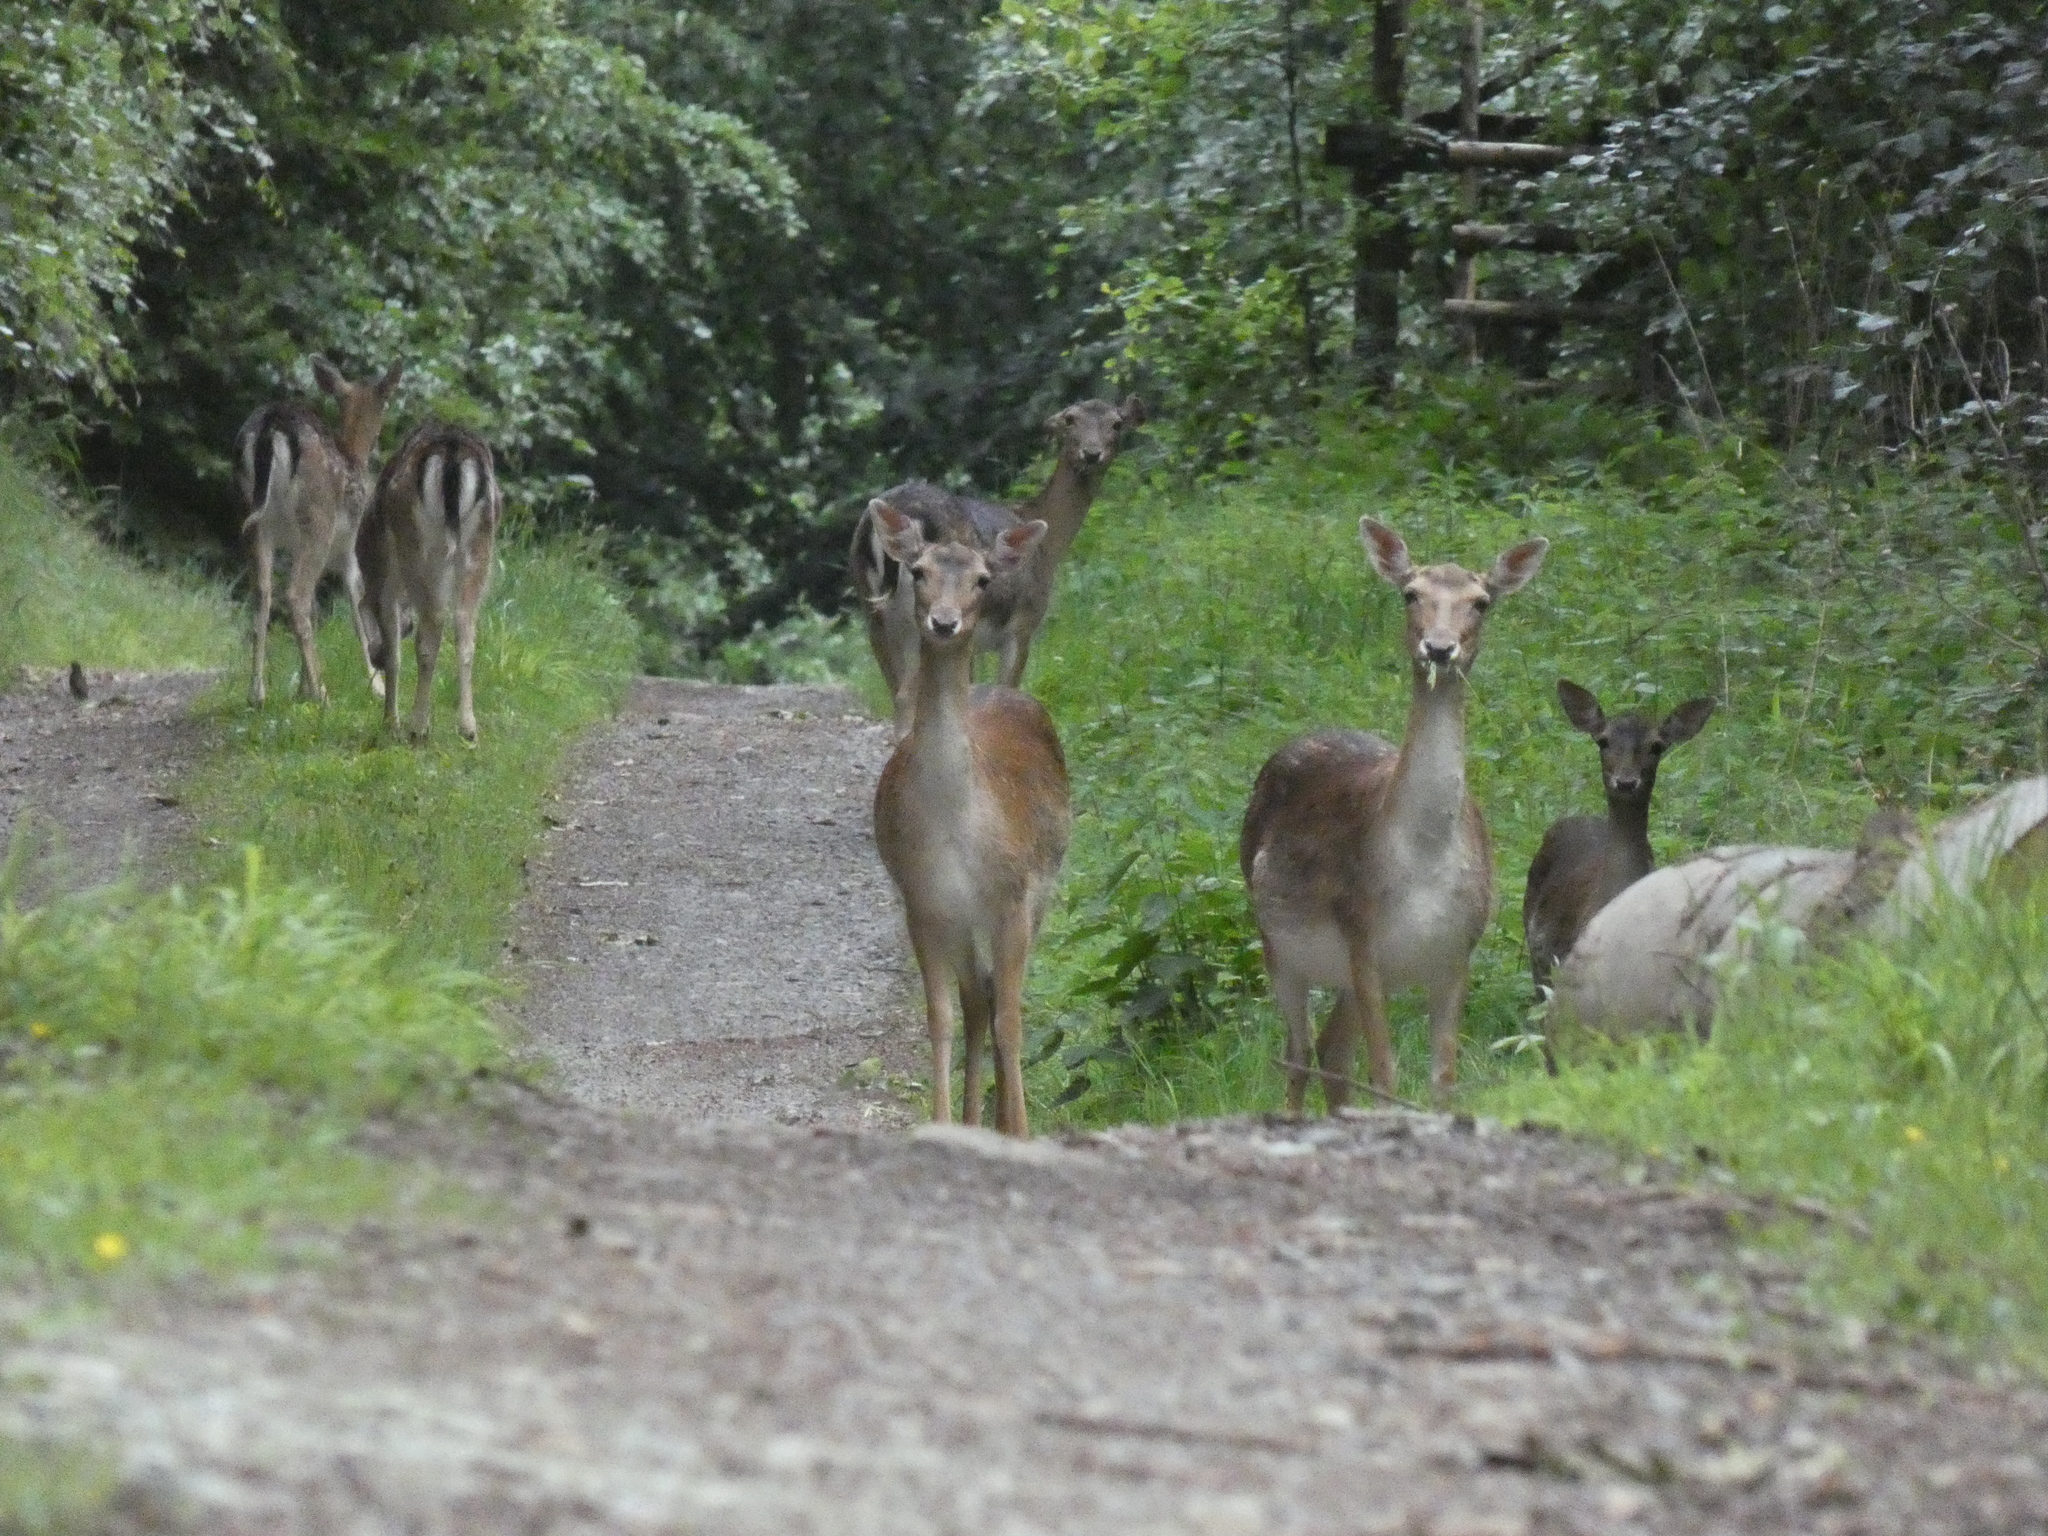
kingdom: Animalia
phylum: Chordata
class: Mammalia
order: Artiodactyla
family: Cervidae
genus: Dama
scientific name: Dama dama
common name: Fallow deer
